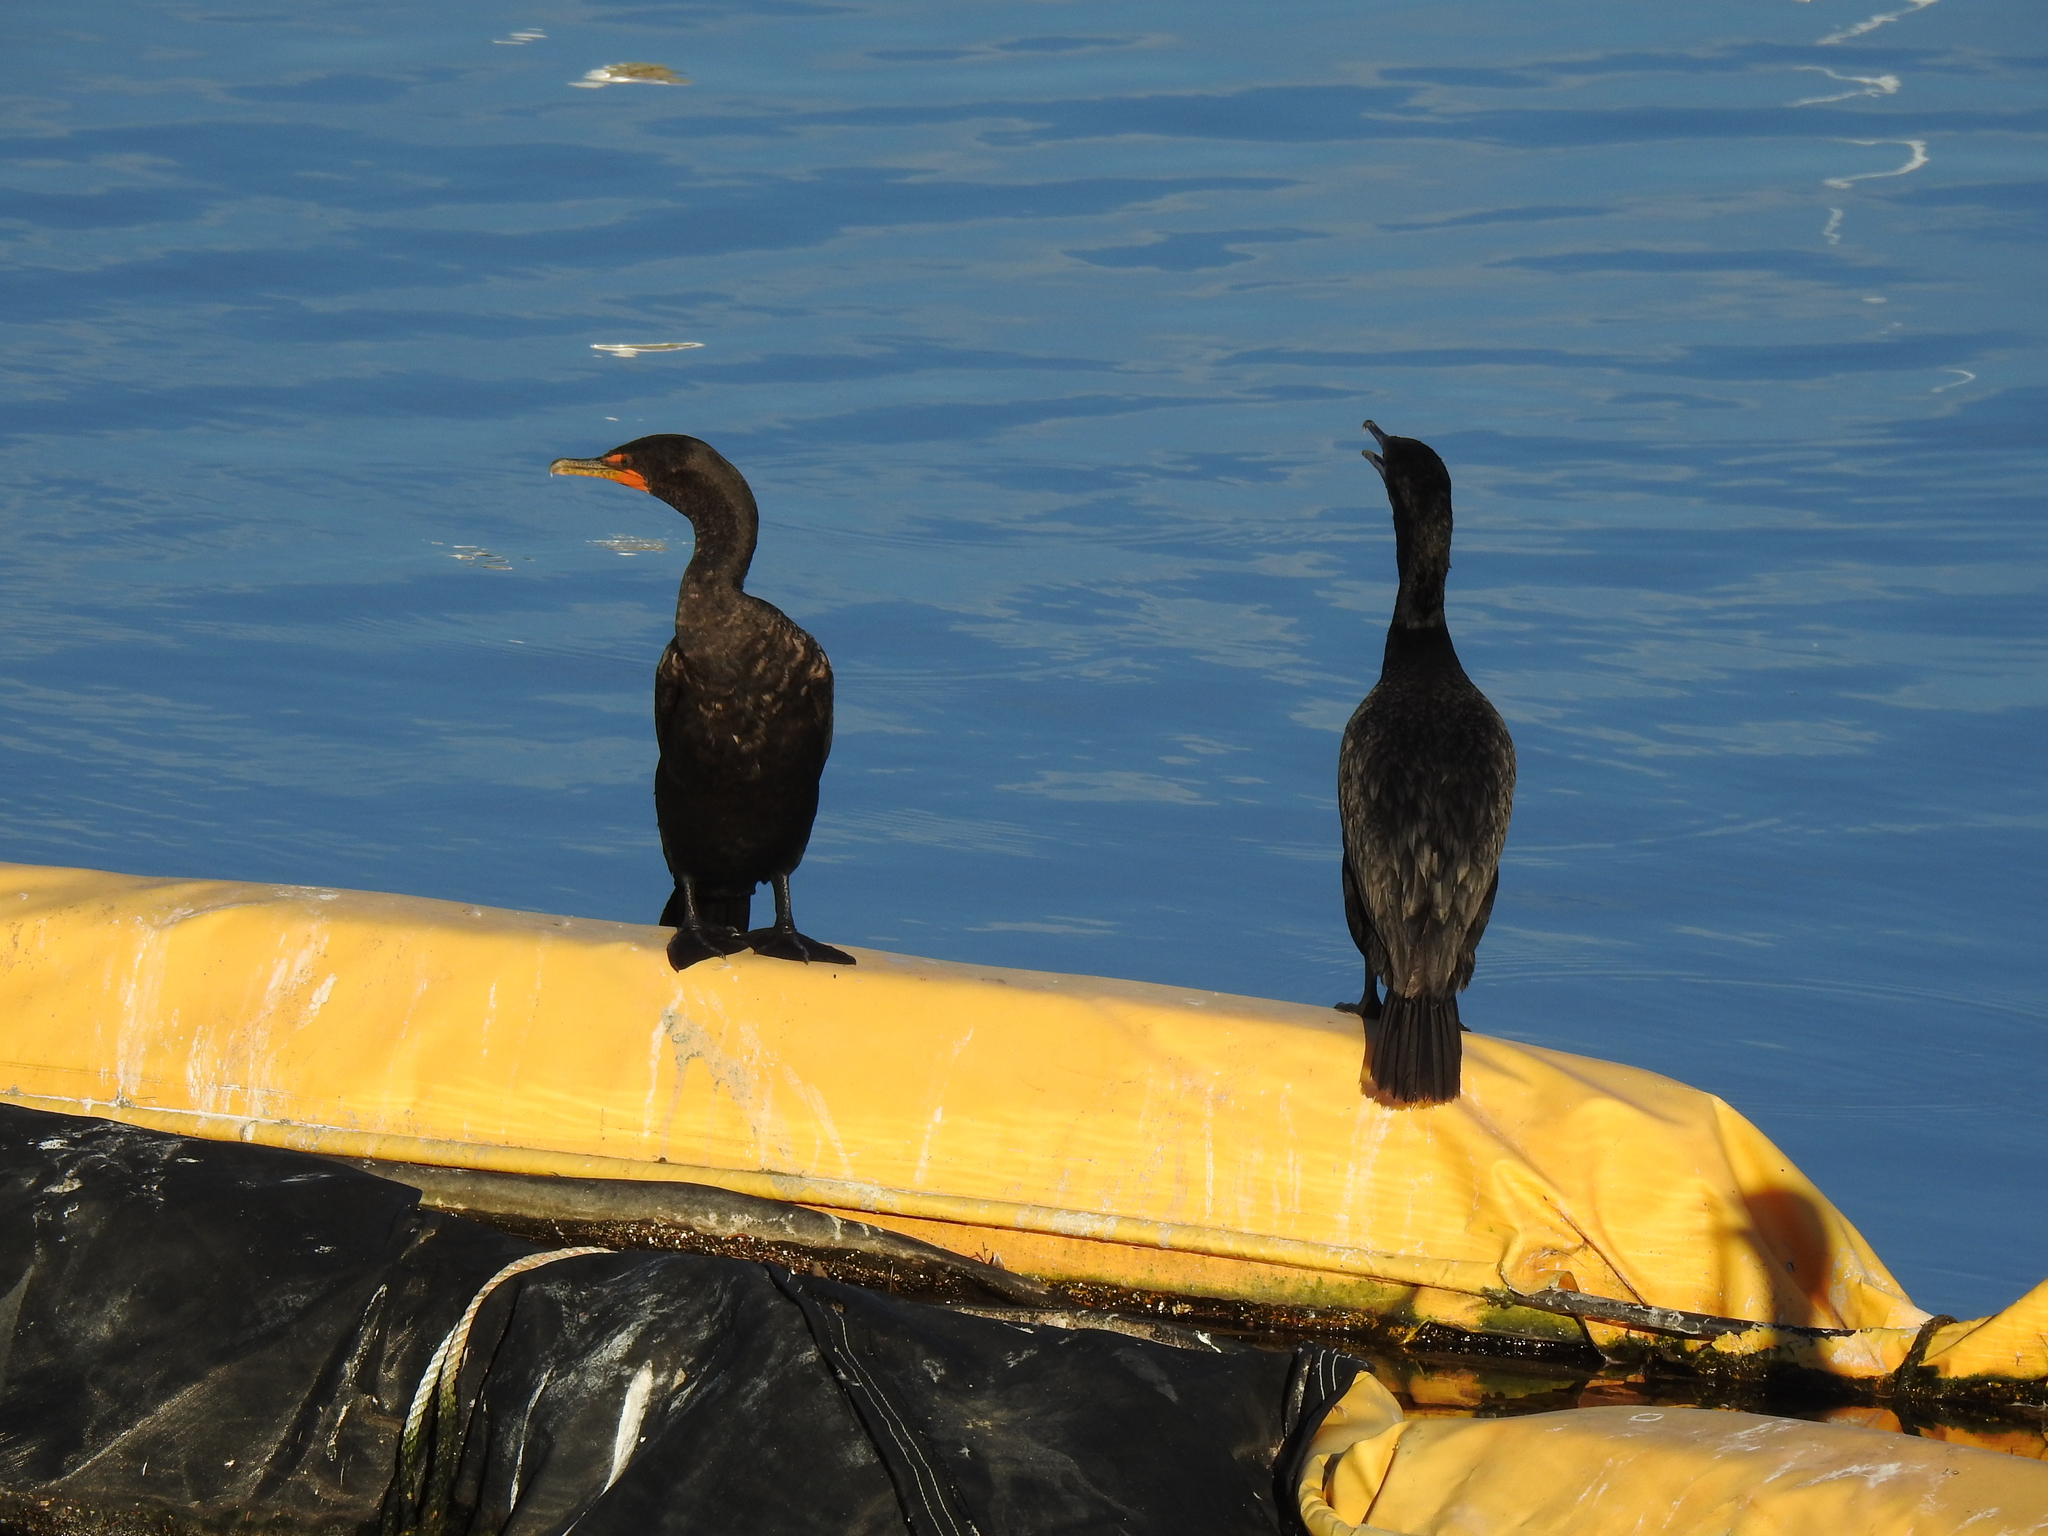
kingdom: Animalia
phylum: Chordata
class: Aves
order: Suliformes
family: Phalacrocoracidae
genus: Phalacrocorax
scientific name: Phalacrocorax auritus
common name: Double-crested cormorant
